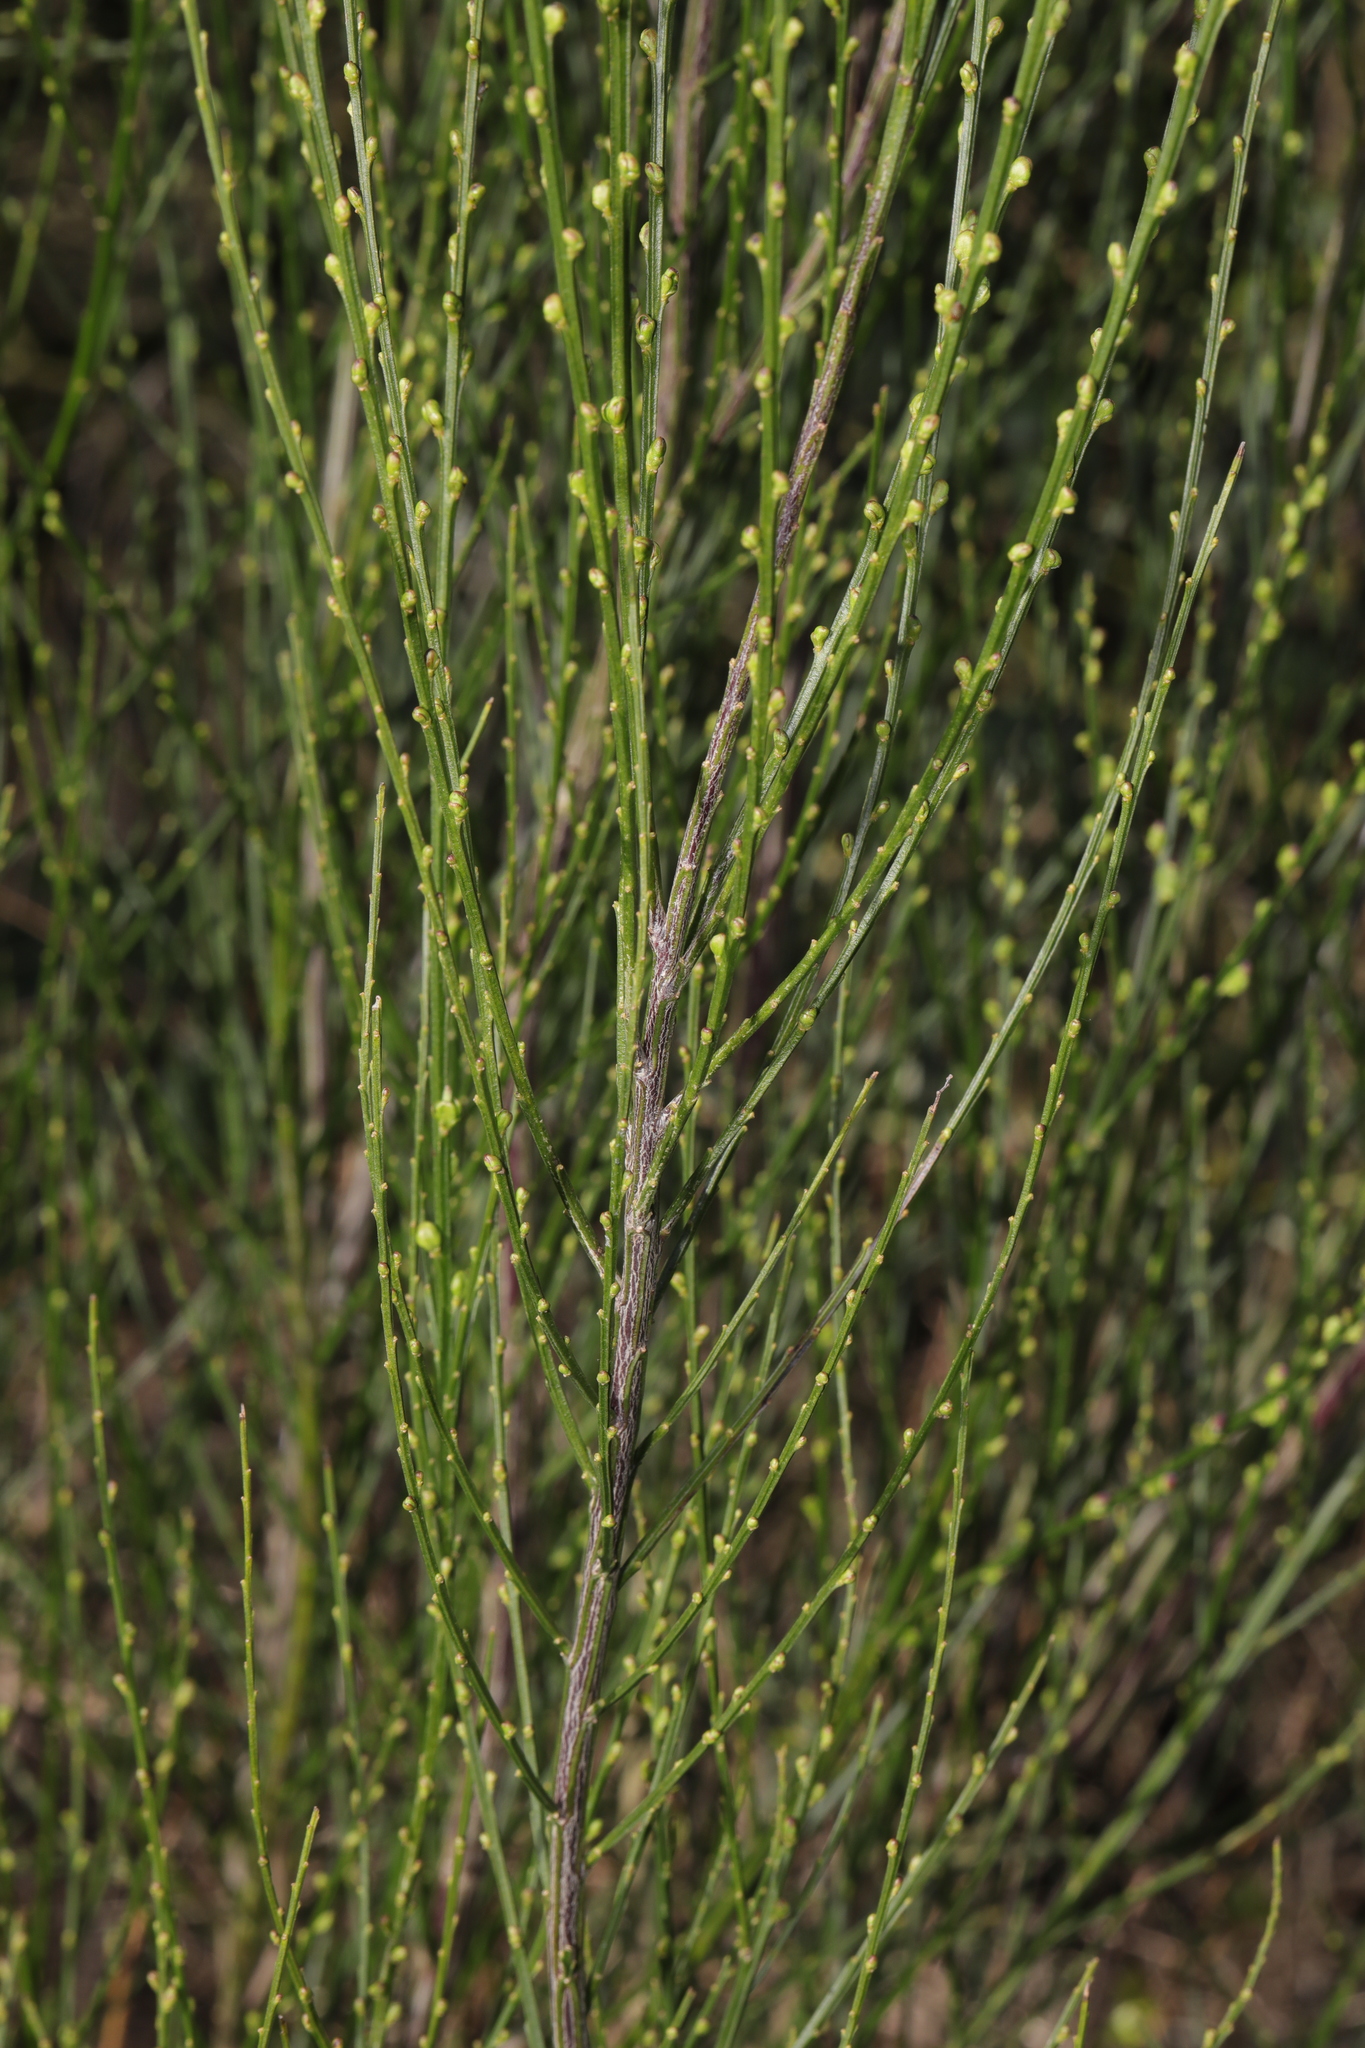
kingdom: Plantae
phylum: Tracheophyta
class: Magnoliopsida
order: Fabales
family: Fabaceae
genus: Cytisus
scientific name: Cytisus scoparius
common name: Scotch broom
